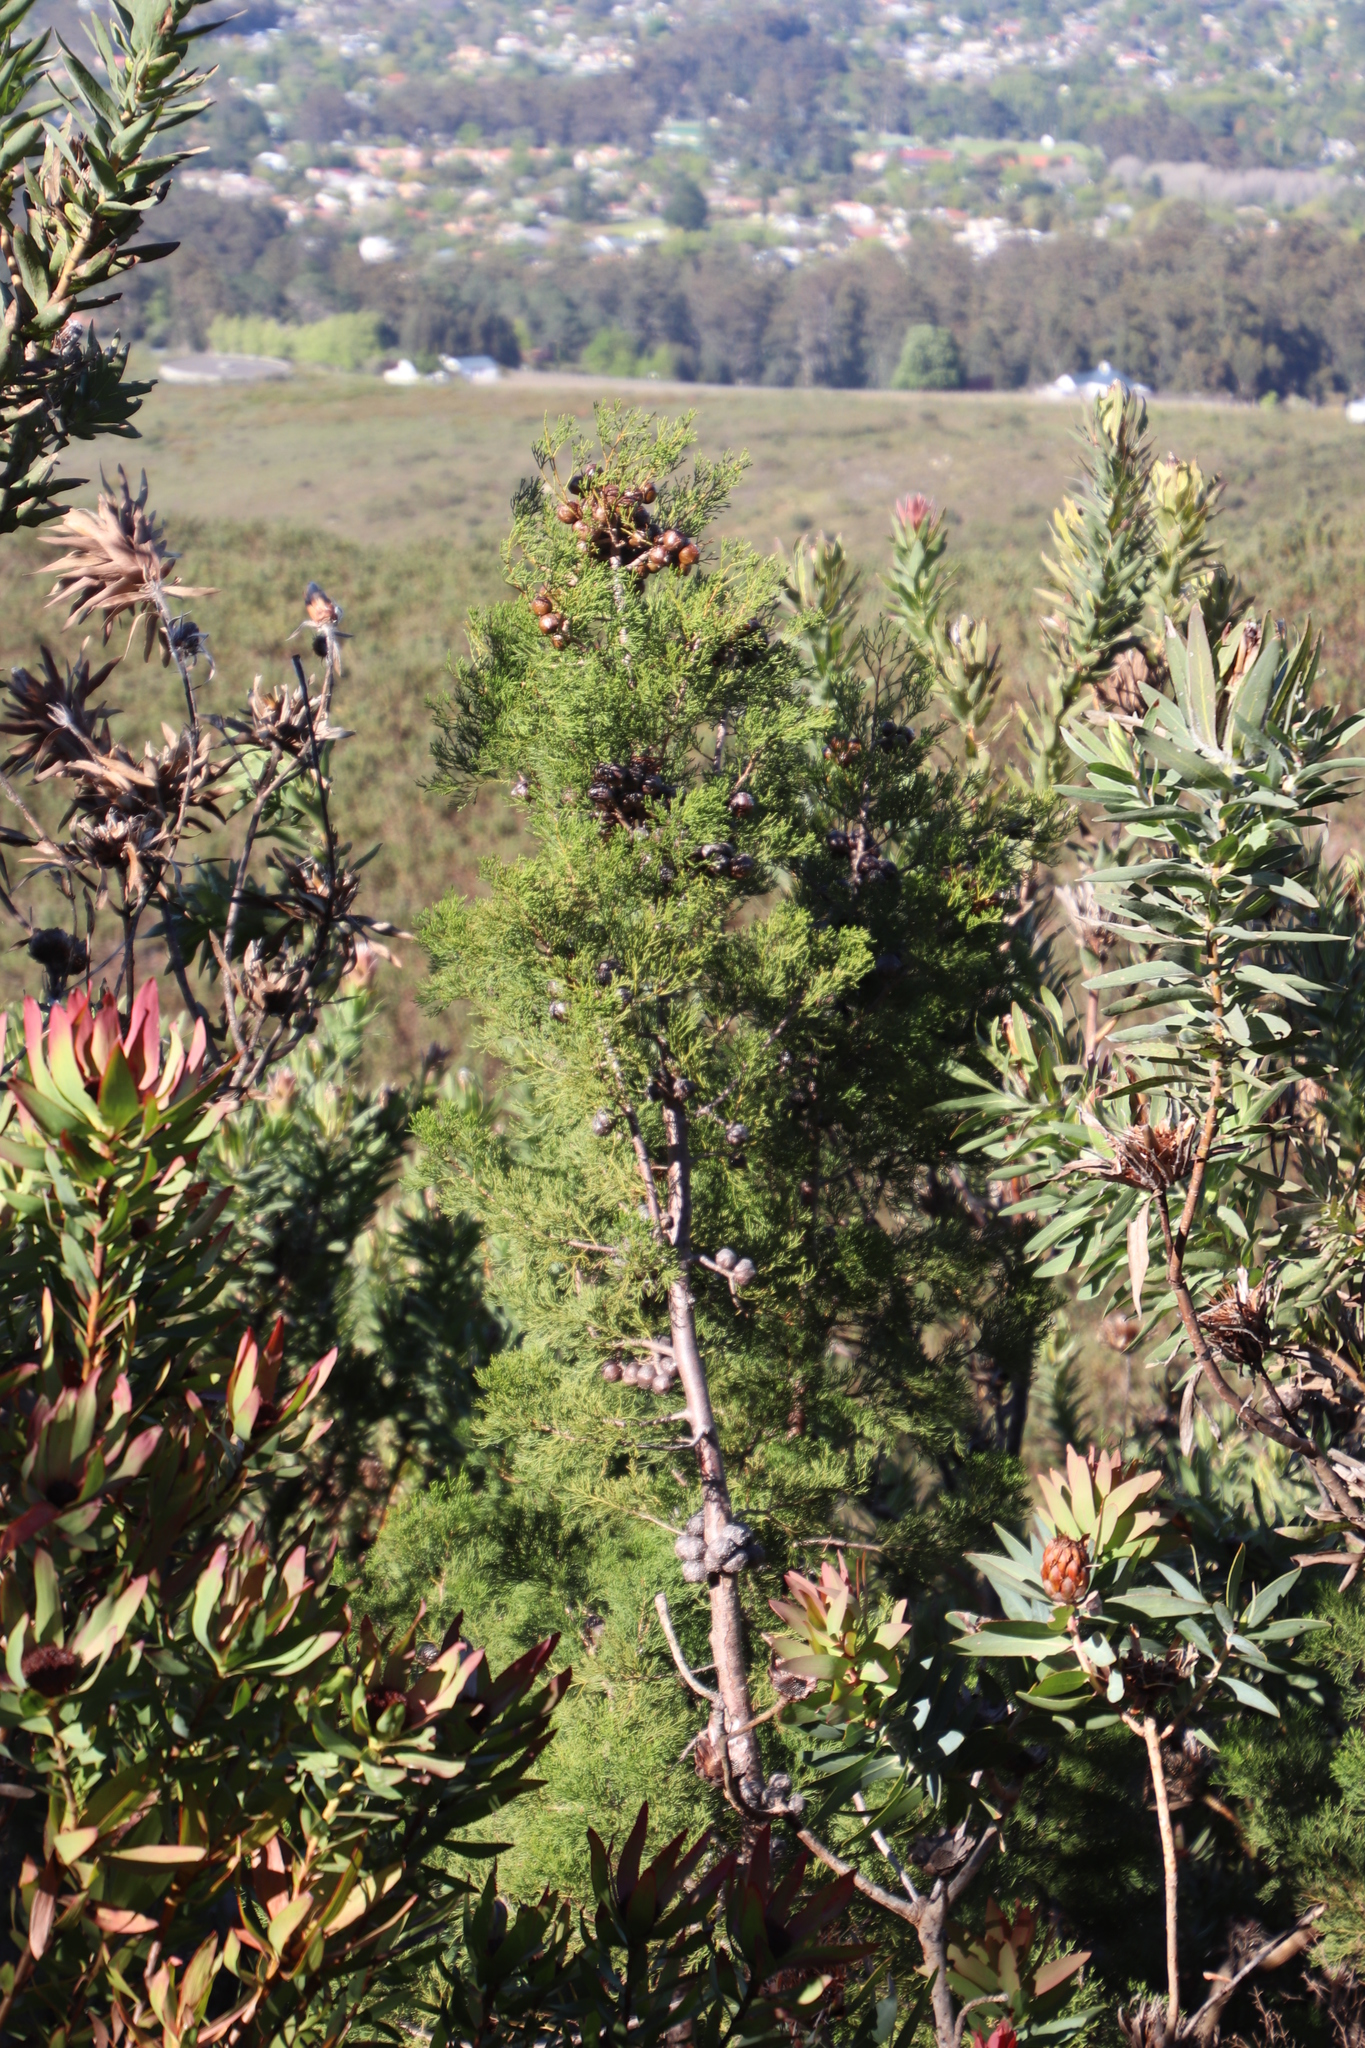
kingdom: Plantae
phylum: Tracheophyta
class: Pinopsida
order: Pinales
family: Cupressaceae
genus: Widdringtonia
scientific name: Widdringtonia nodiflora
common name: Cape cypress
